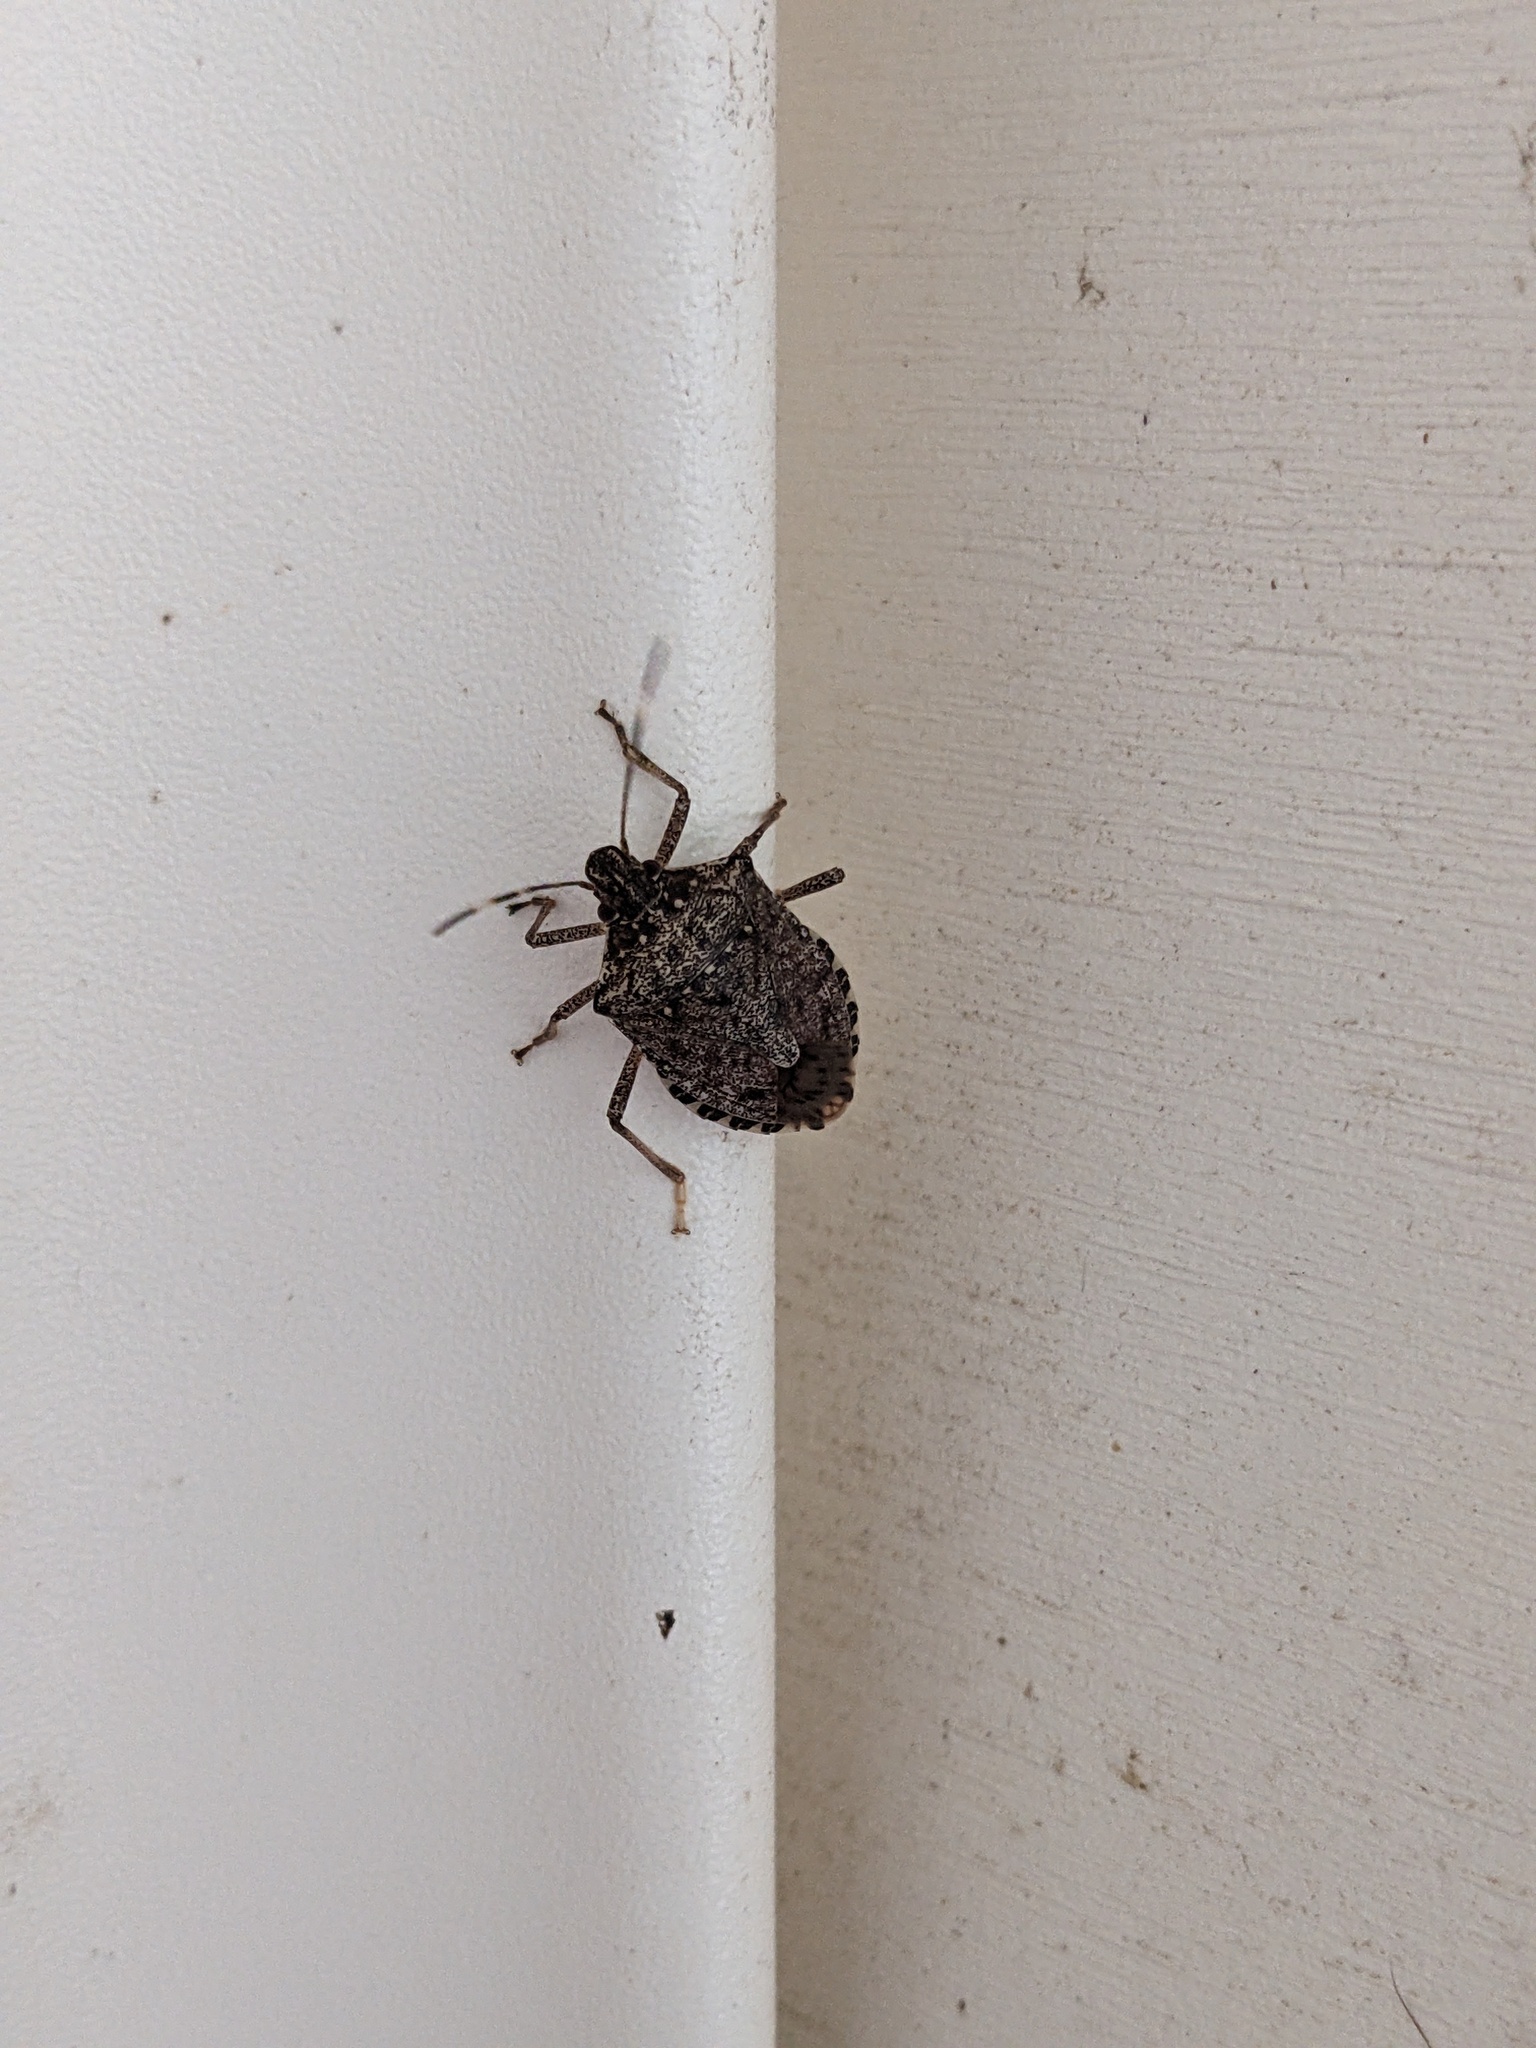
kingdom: Animalia
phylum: Arthropoda
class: Insecta
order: Hemiptera
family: Pentatomidae
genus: Halyomorpha
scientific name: Halyomorpha halys
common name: Brown marmorated stink bug
